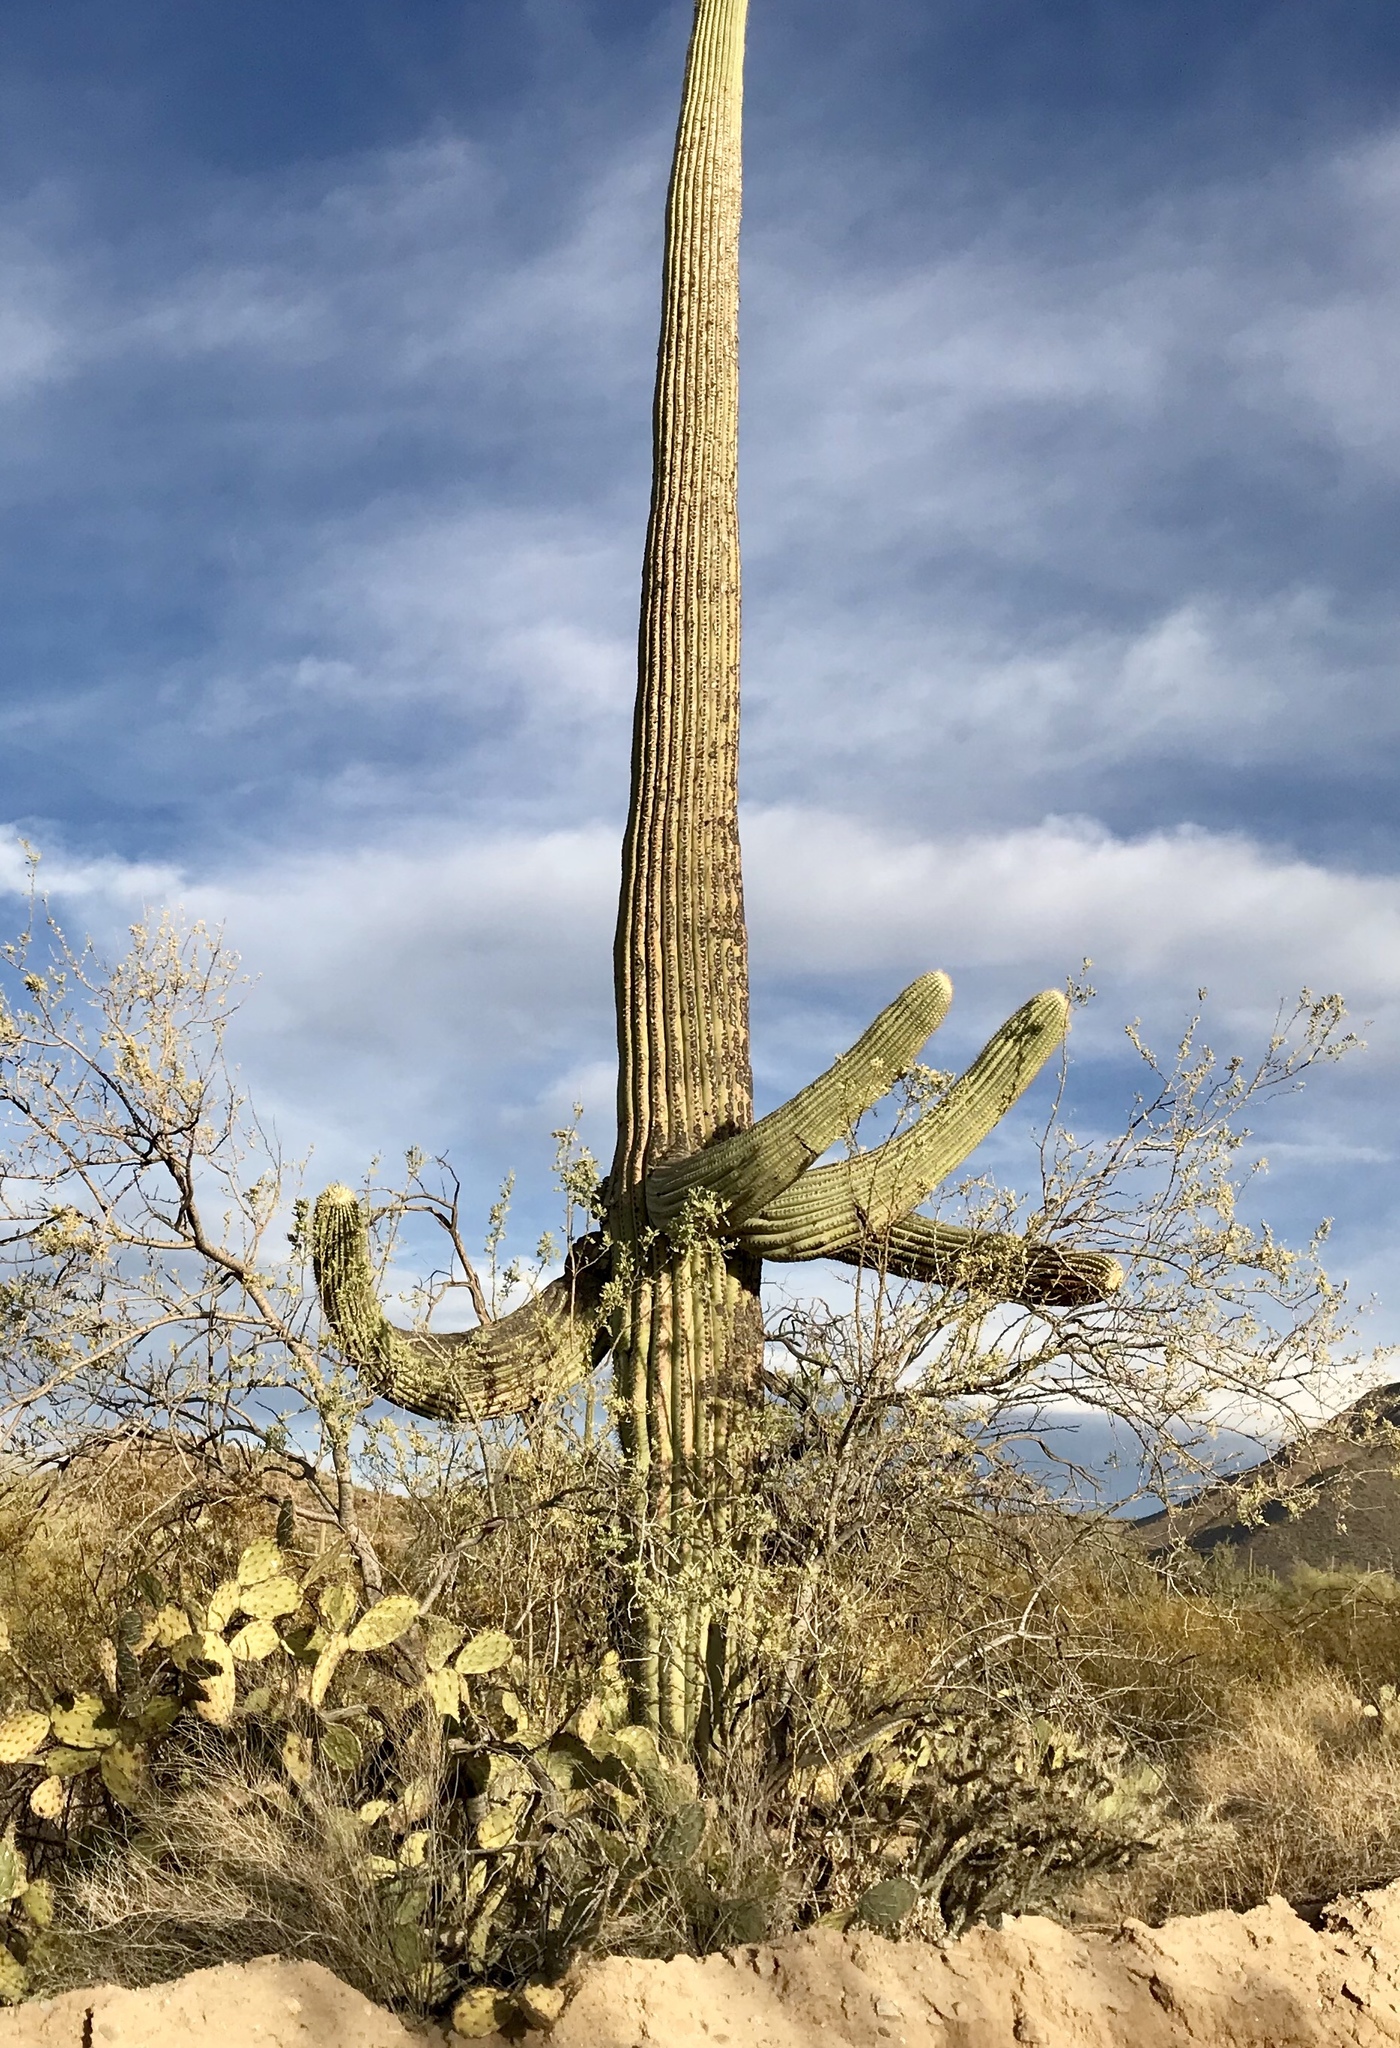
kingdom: Plantae
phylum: Tracheophyta
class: Magnoliopsida
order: Caryophyllales
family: Cactaceae
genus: Carnegiea
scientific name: Carnegiea gigantea
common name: Saguaro
